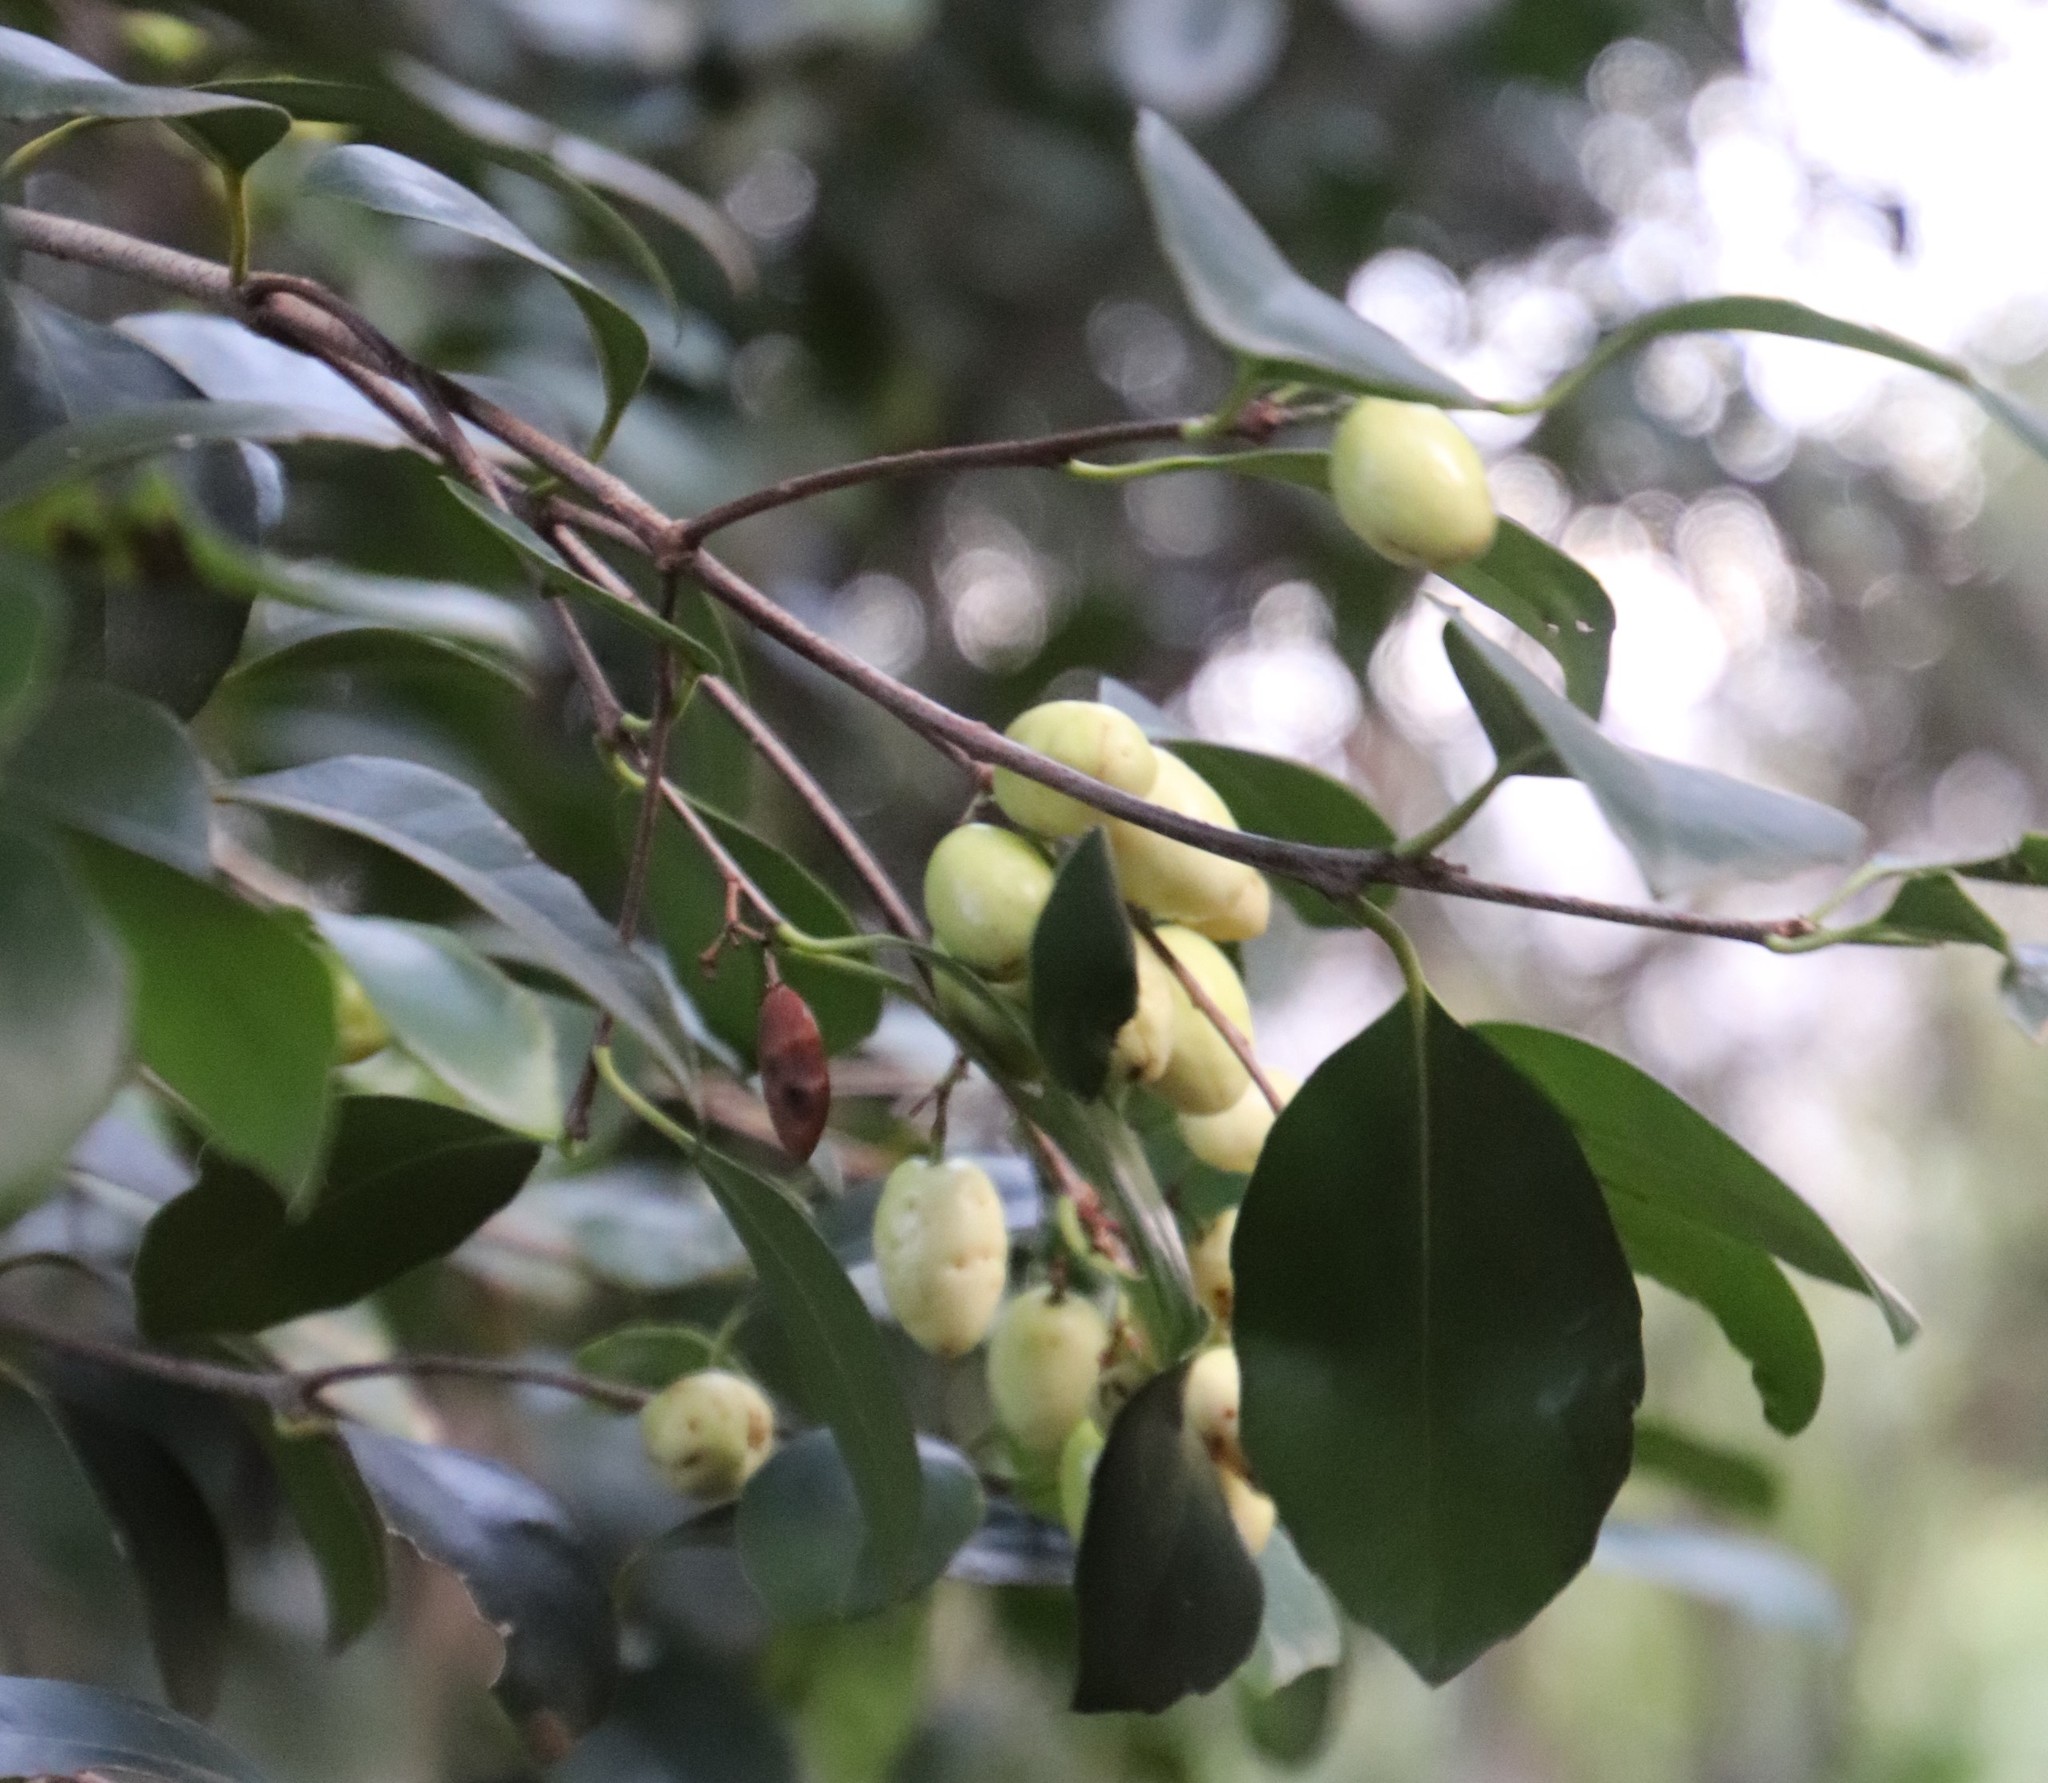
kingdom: Plantae
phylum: Tracheophyta
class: Magnoliopsida
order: Celastrales
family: Celastraceae
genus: Elaeodendron
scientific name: Elaeodendron croceum
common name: Saffron
